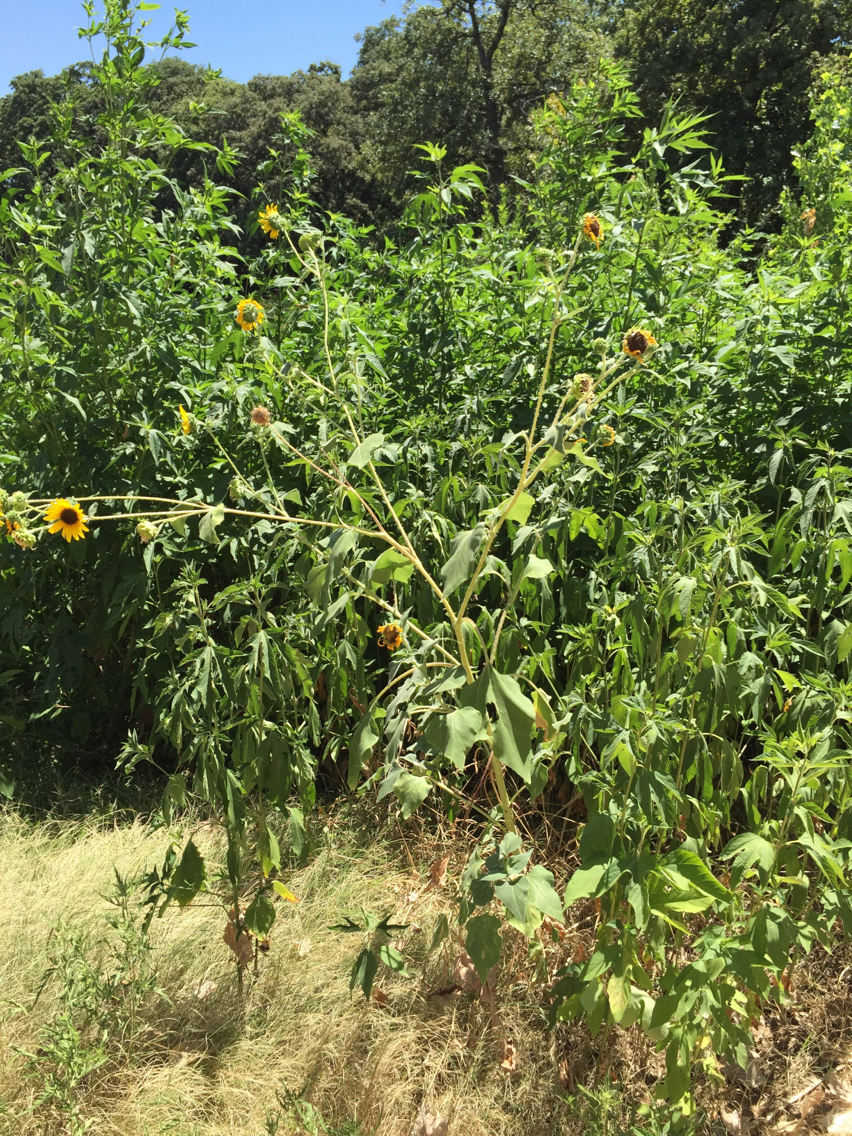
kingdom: Plantae
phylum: Tracheophyta
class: Magnoliopsida
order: Asterales
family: Asteraceae
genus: Helianthus
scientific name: Helianthus annuus
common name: Sunflower
